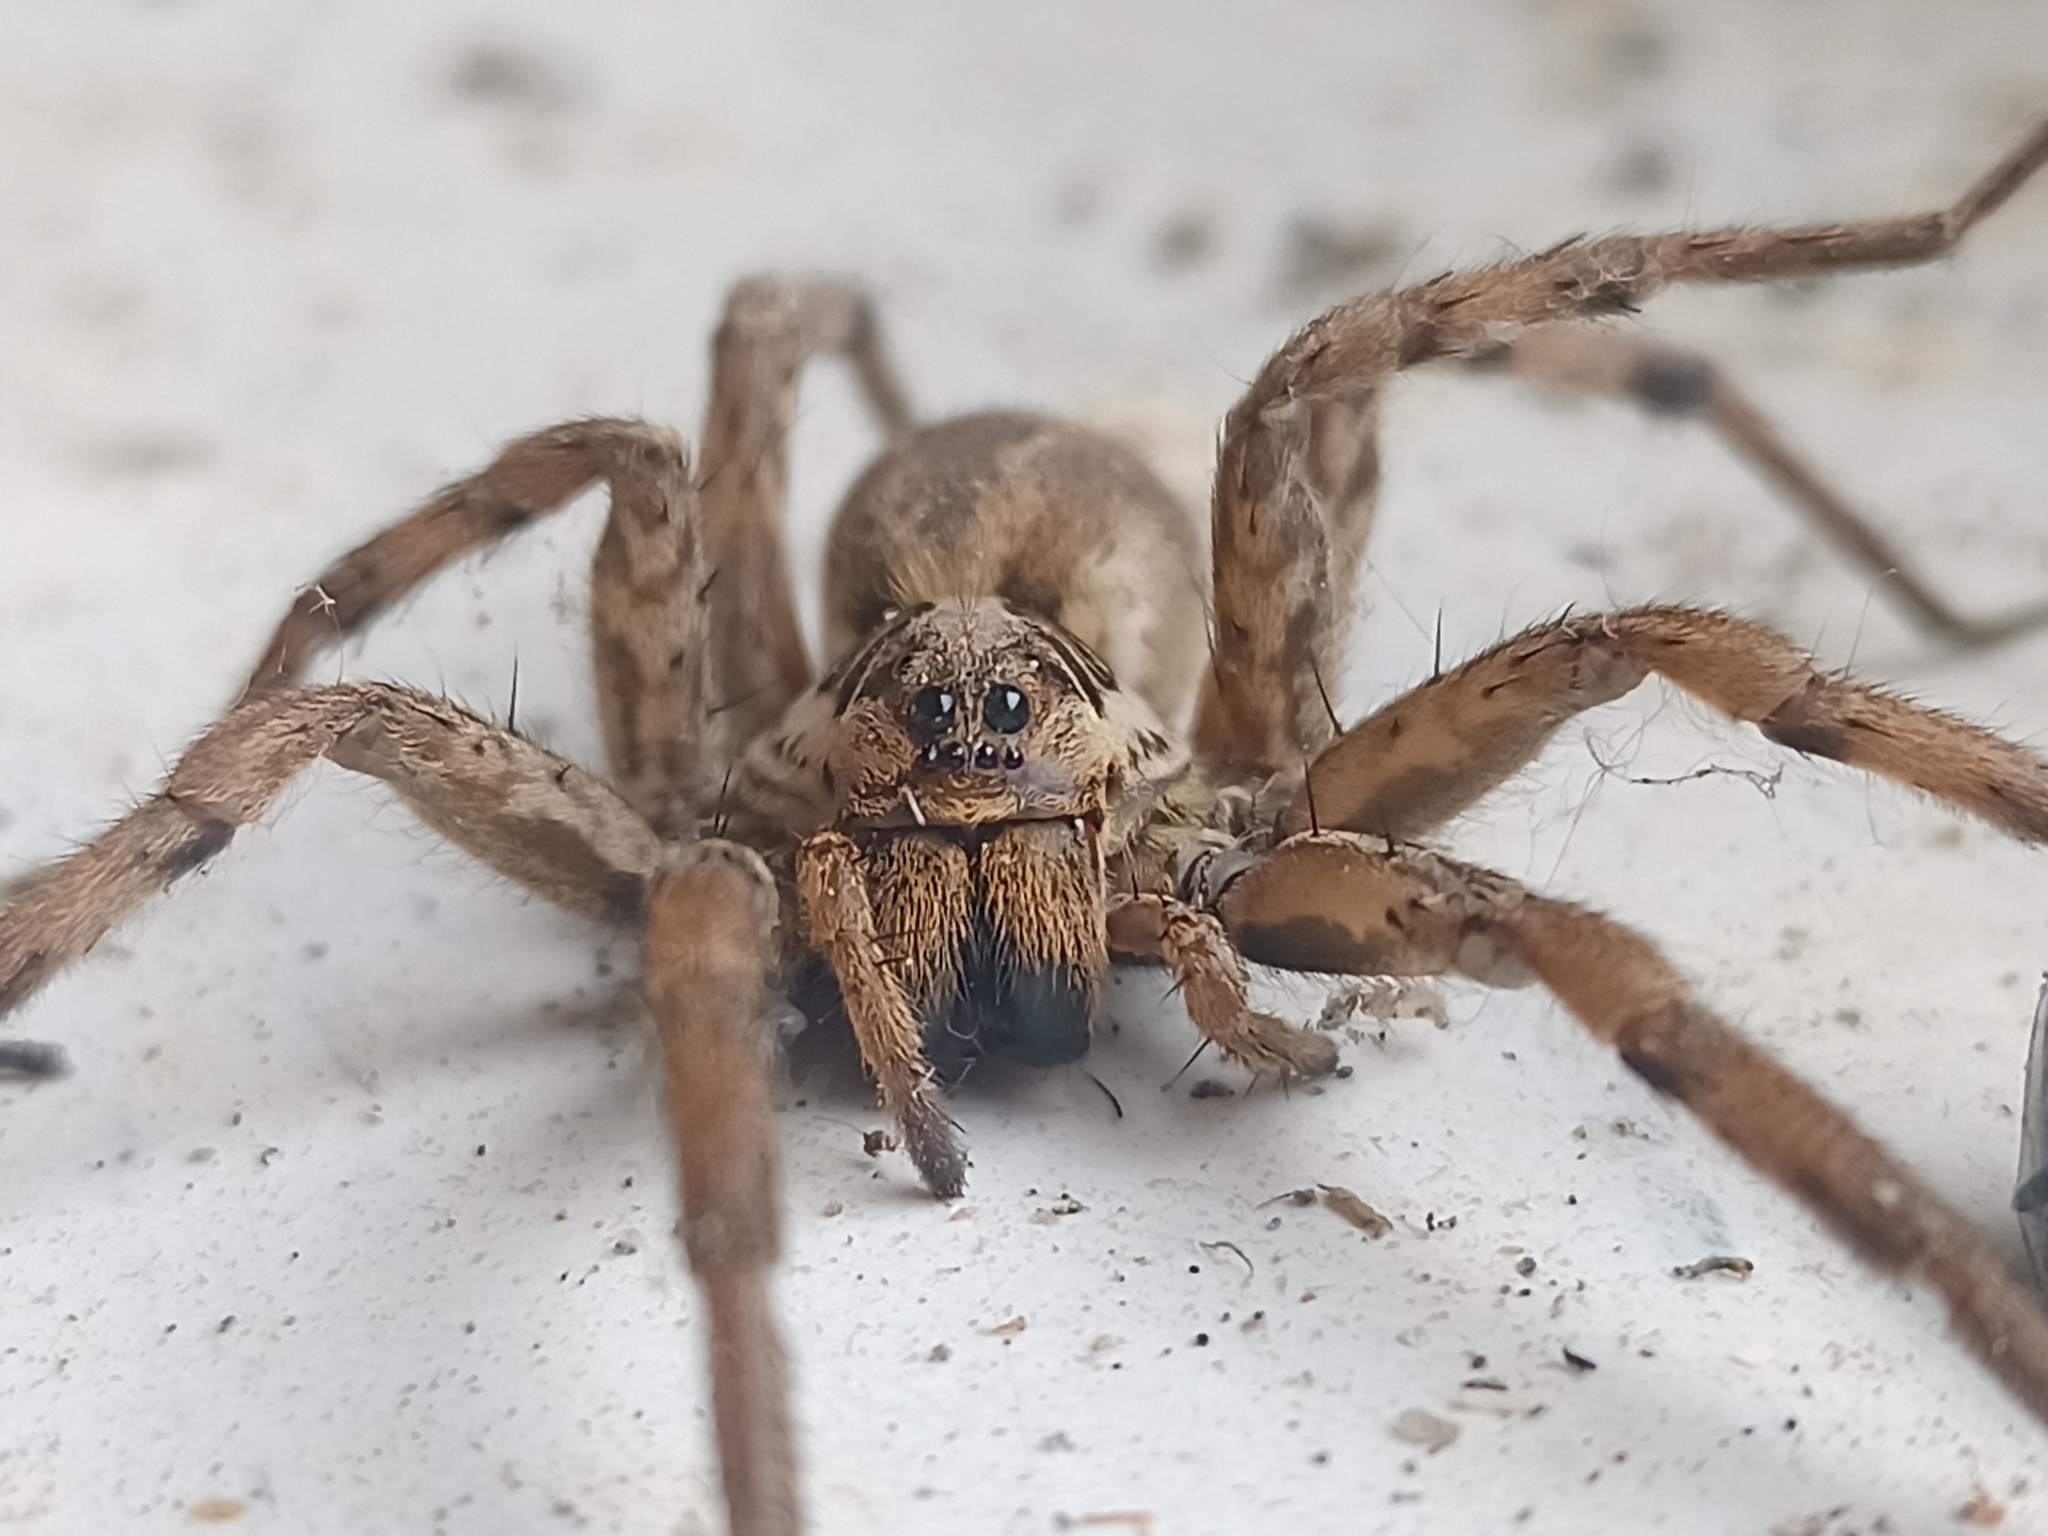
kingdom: Animalia
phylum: Arthropoda
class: Arachnida
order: Araneae
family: Lycosidae
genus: Hogna
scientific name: Hogna radiata
